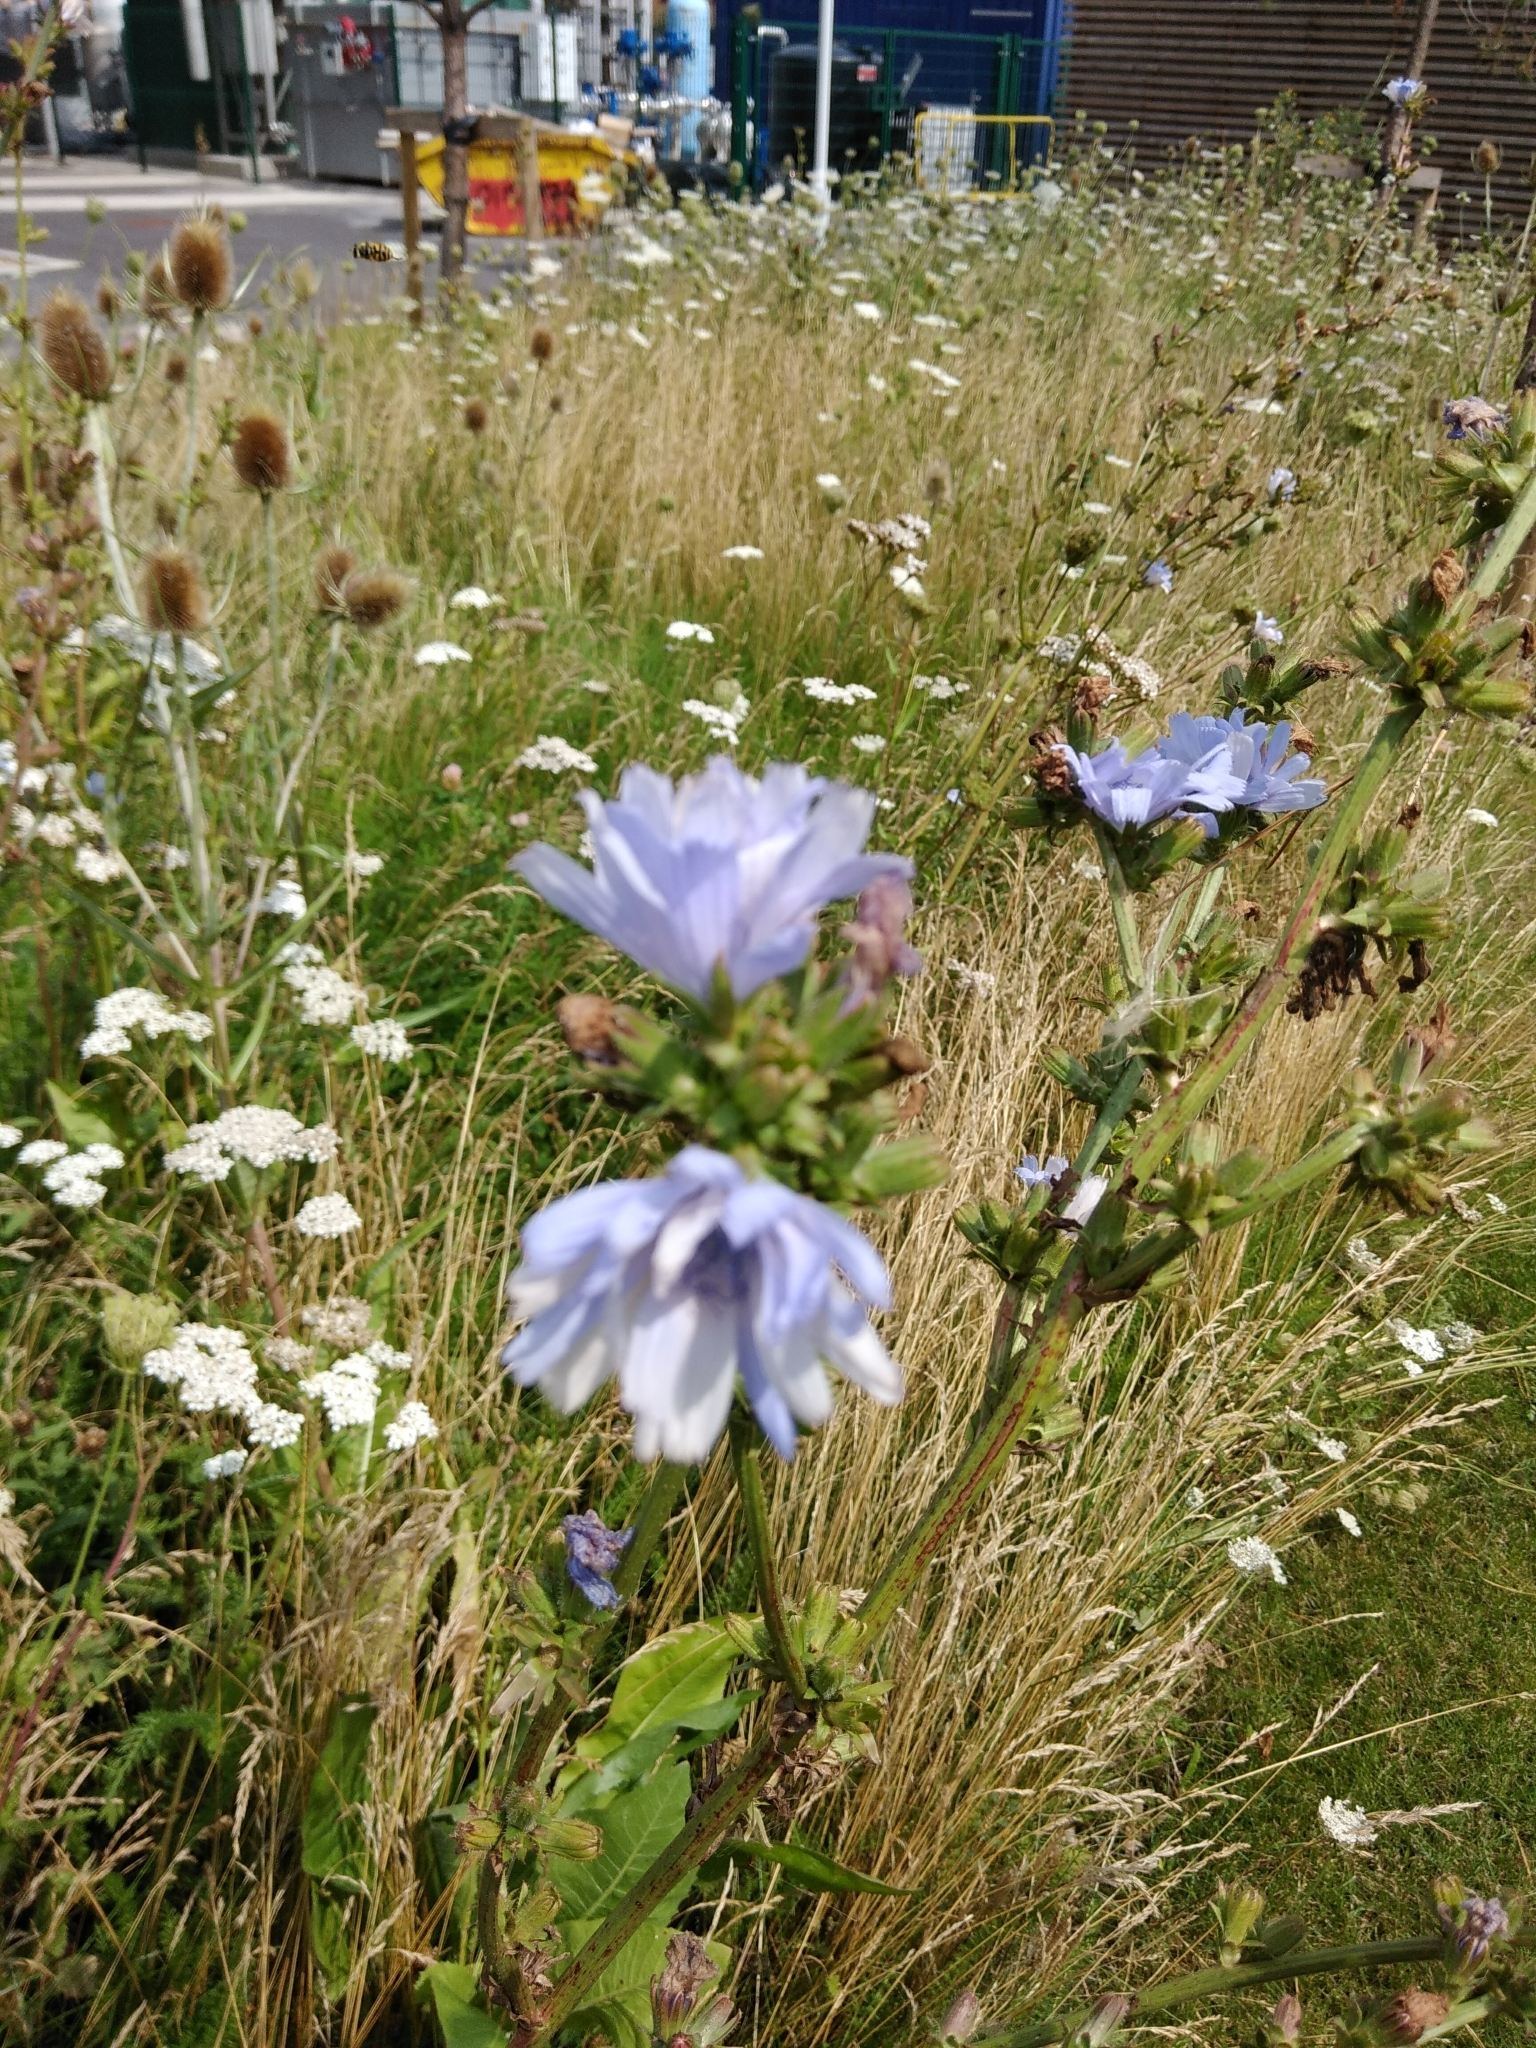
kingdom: Plantae
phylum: Tracheophyta
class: Magnoliopsida
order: Asterales
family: Asteraceae
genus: Cichorium
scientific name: Cichorium intybus
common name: Chicory
